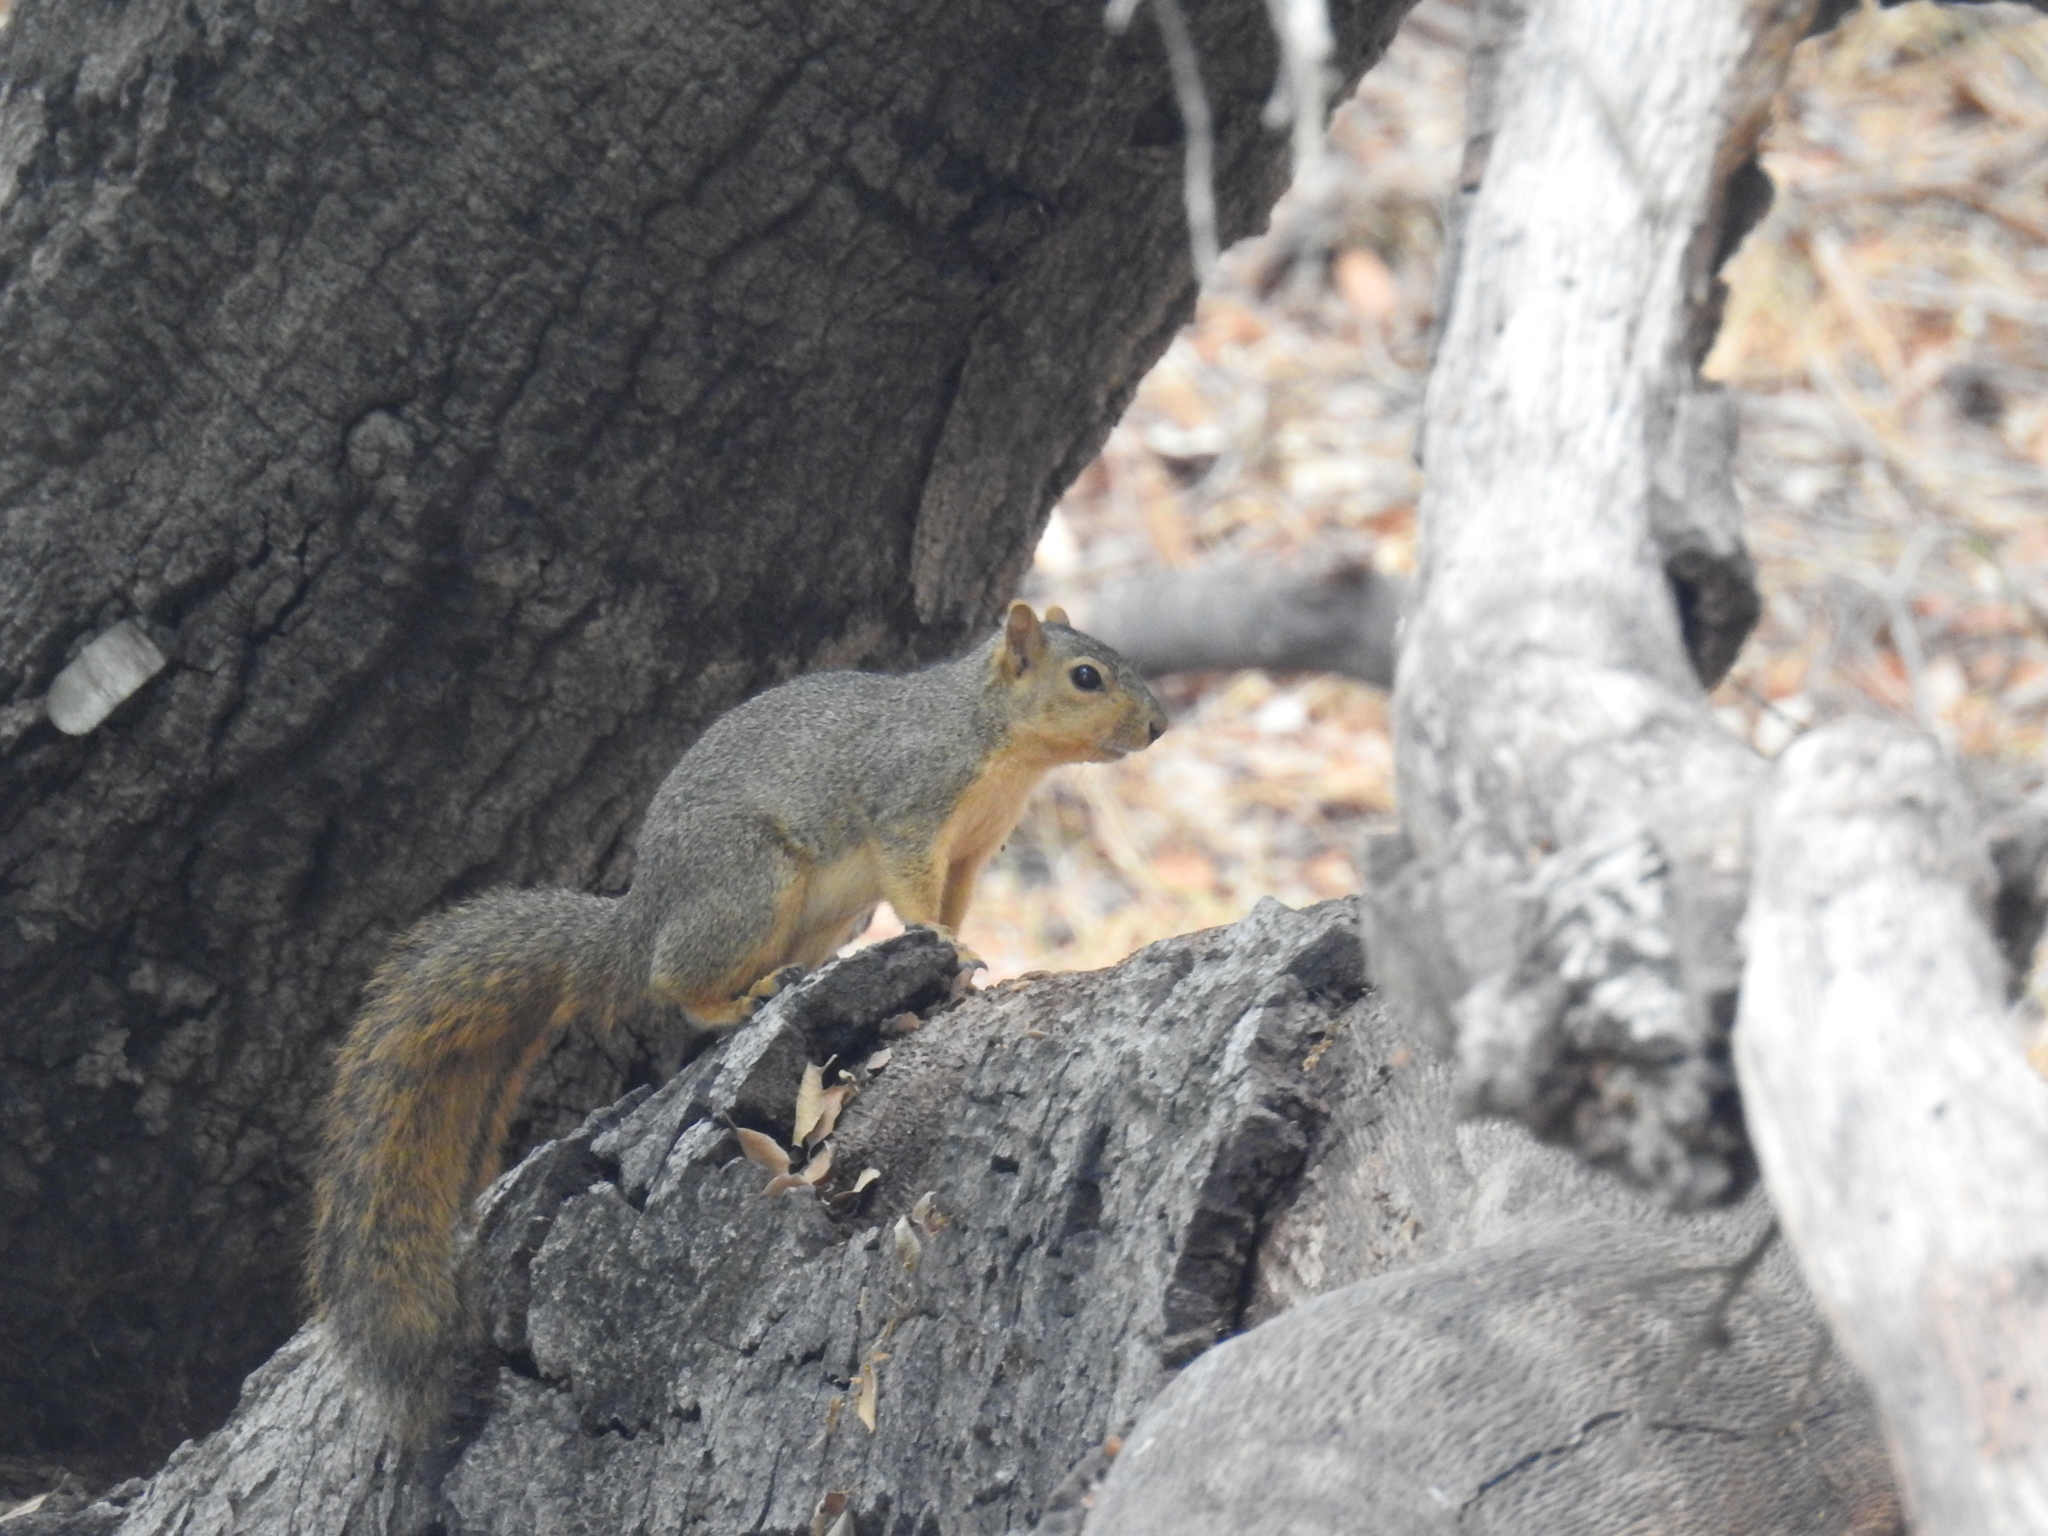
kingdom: Animalia
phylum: Chordata
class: Mammalia
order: Rodentia
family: Sciuridae
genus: Sciurus
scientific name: Sciurus niger
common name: Fox squirrel
